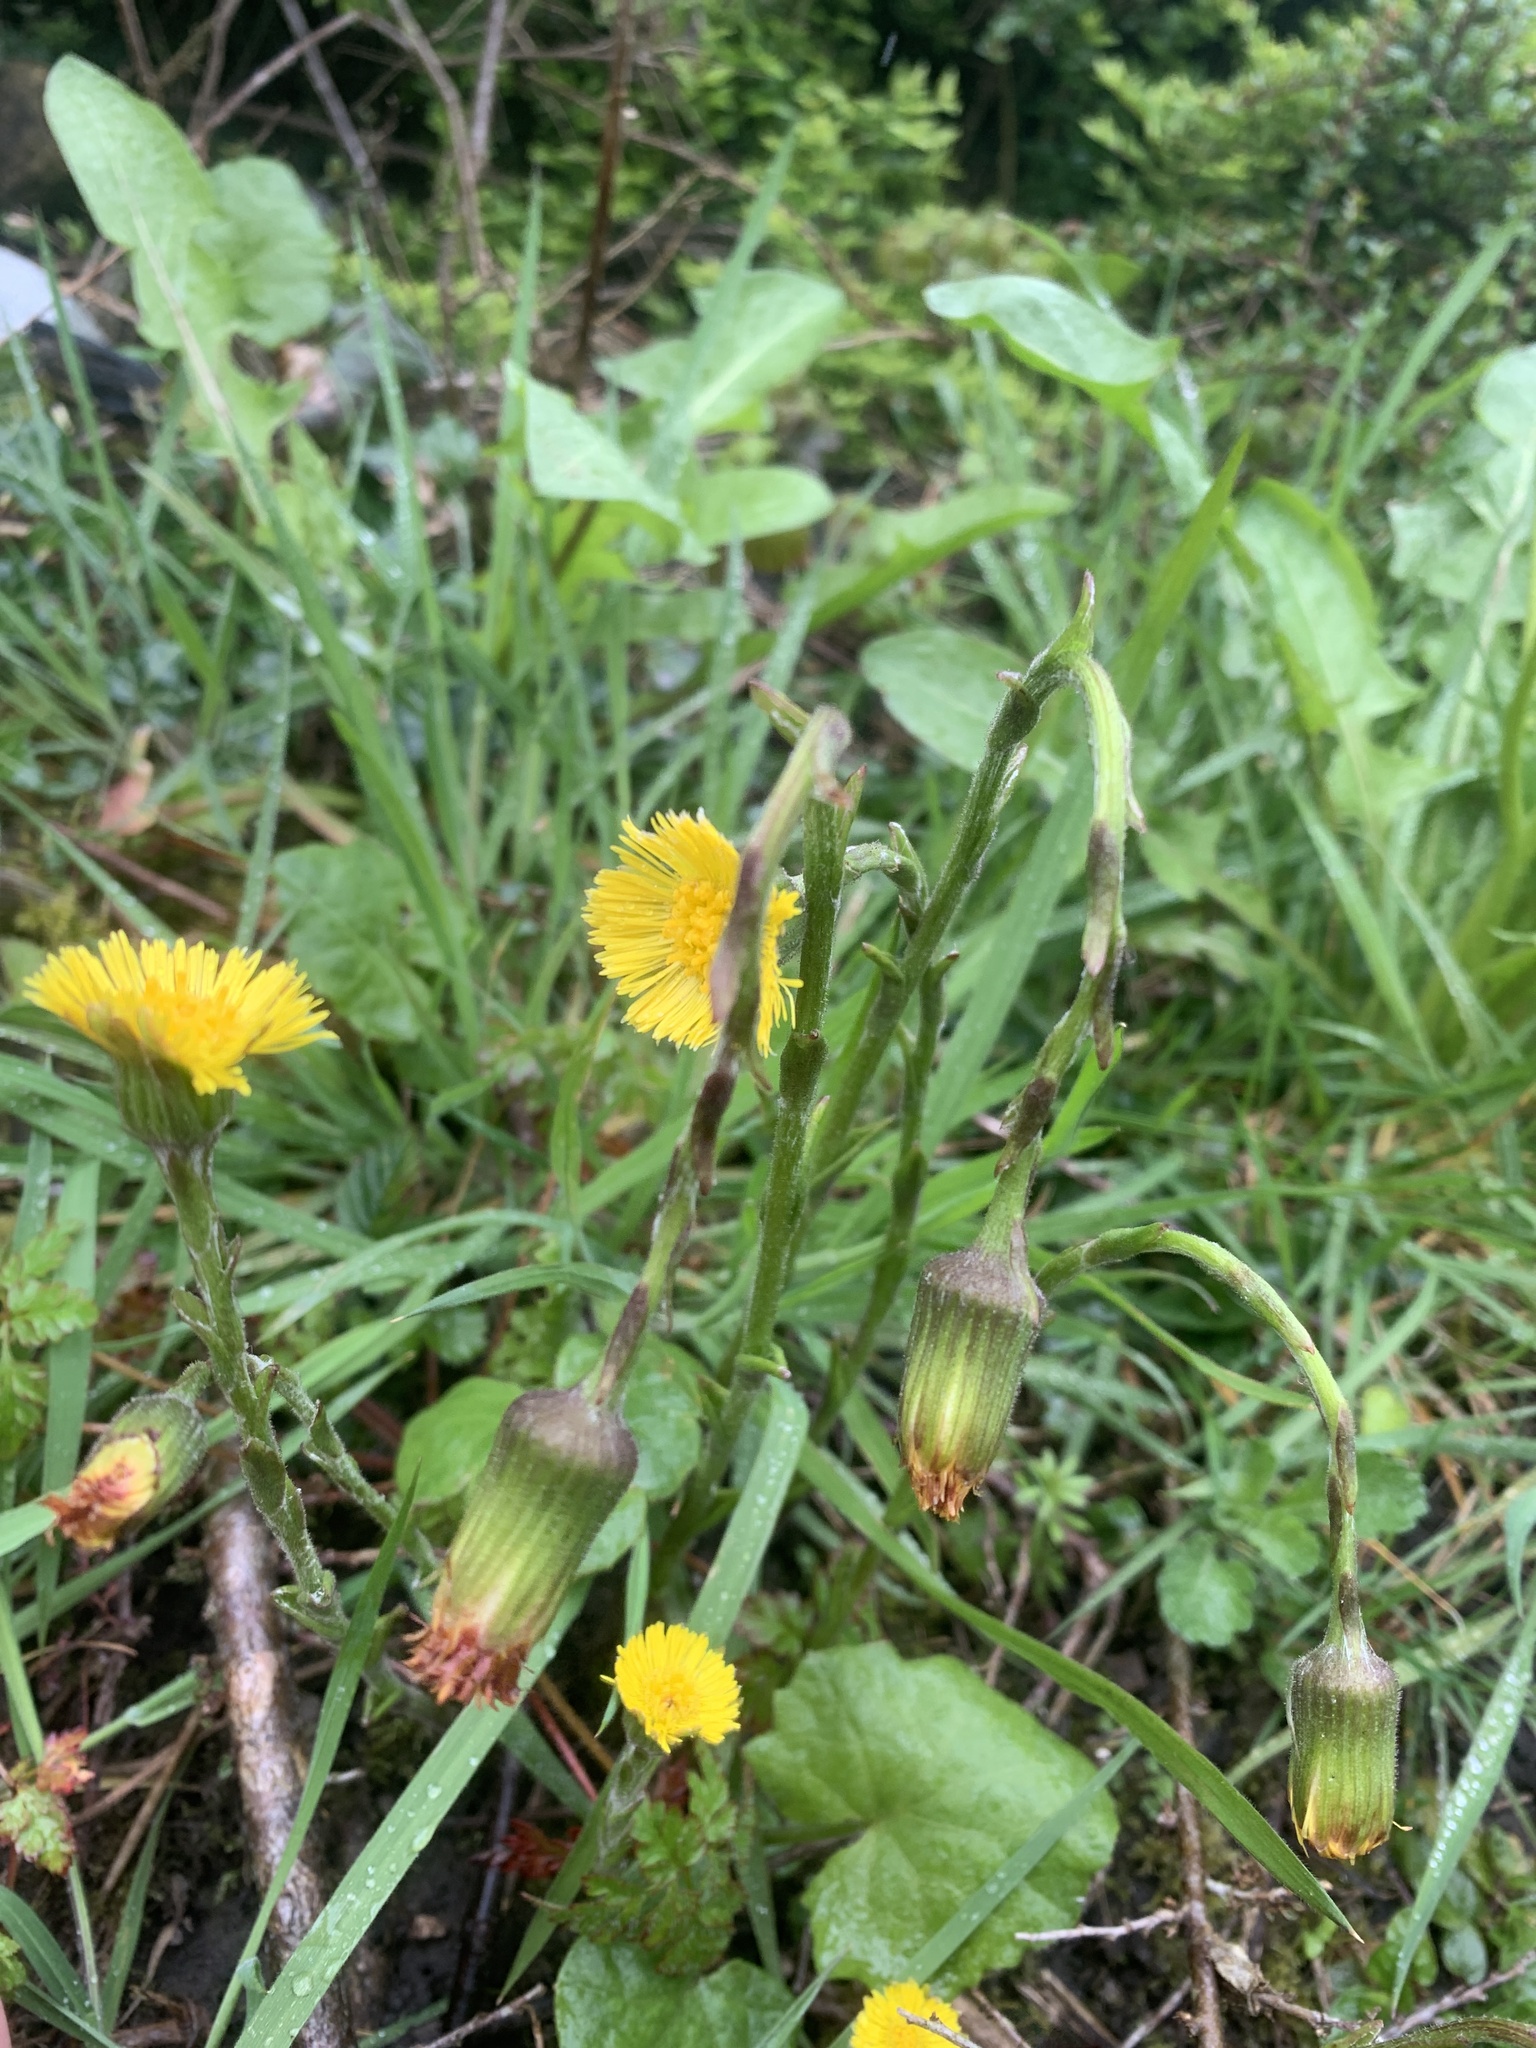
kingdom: Plantae
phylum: Tracheophyta
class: Magnoliopsida
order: Asterales
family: Asteraceae
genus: Tussilago
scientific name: Tussilago farfara
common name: Coltsfoot
